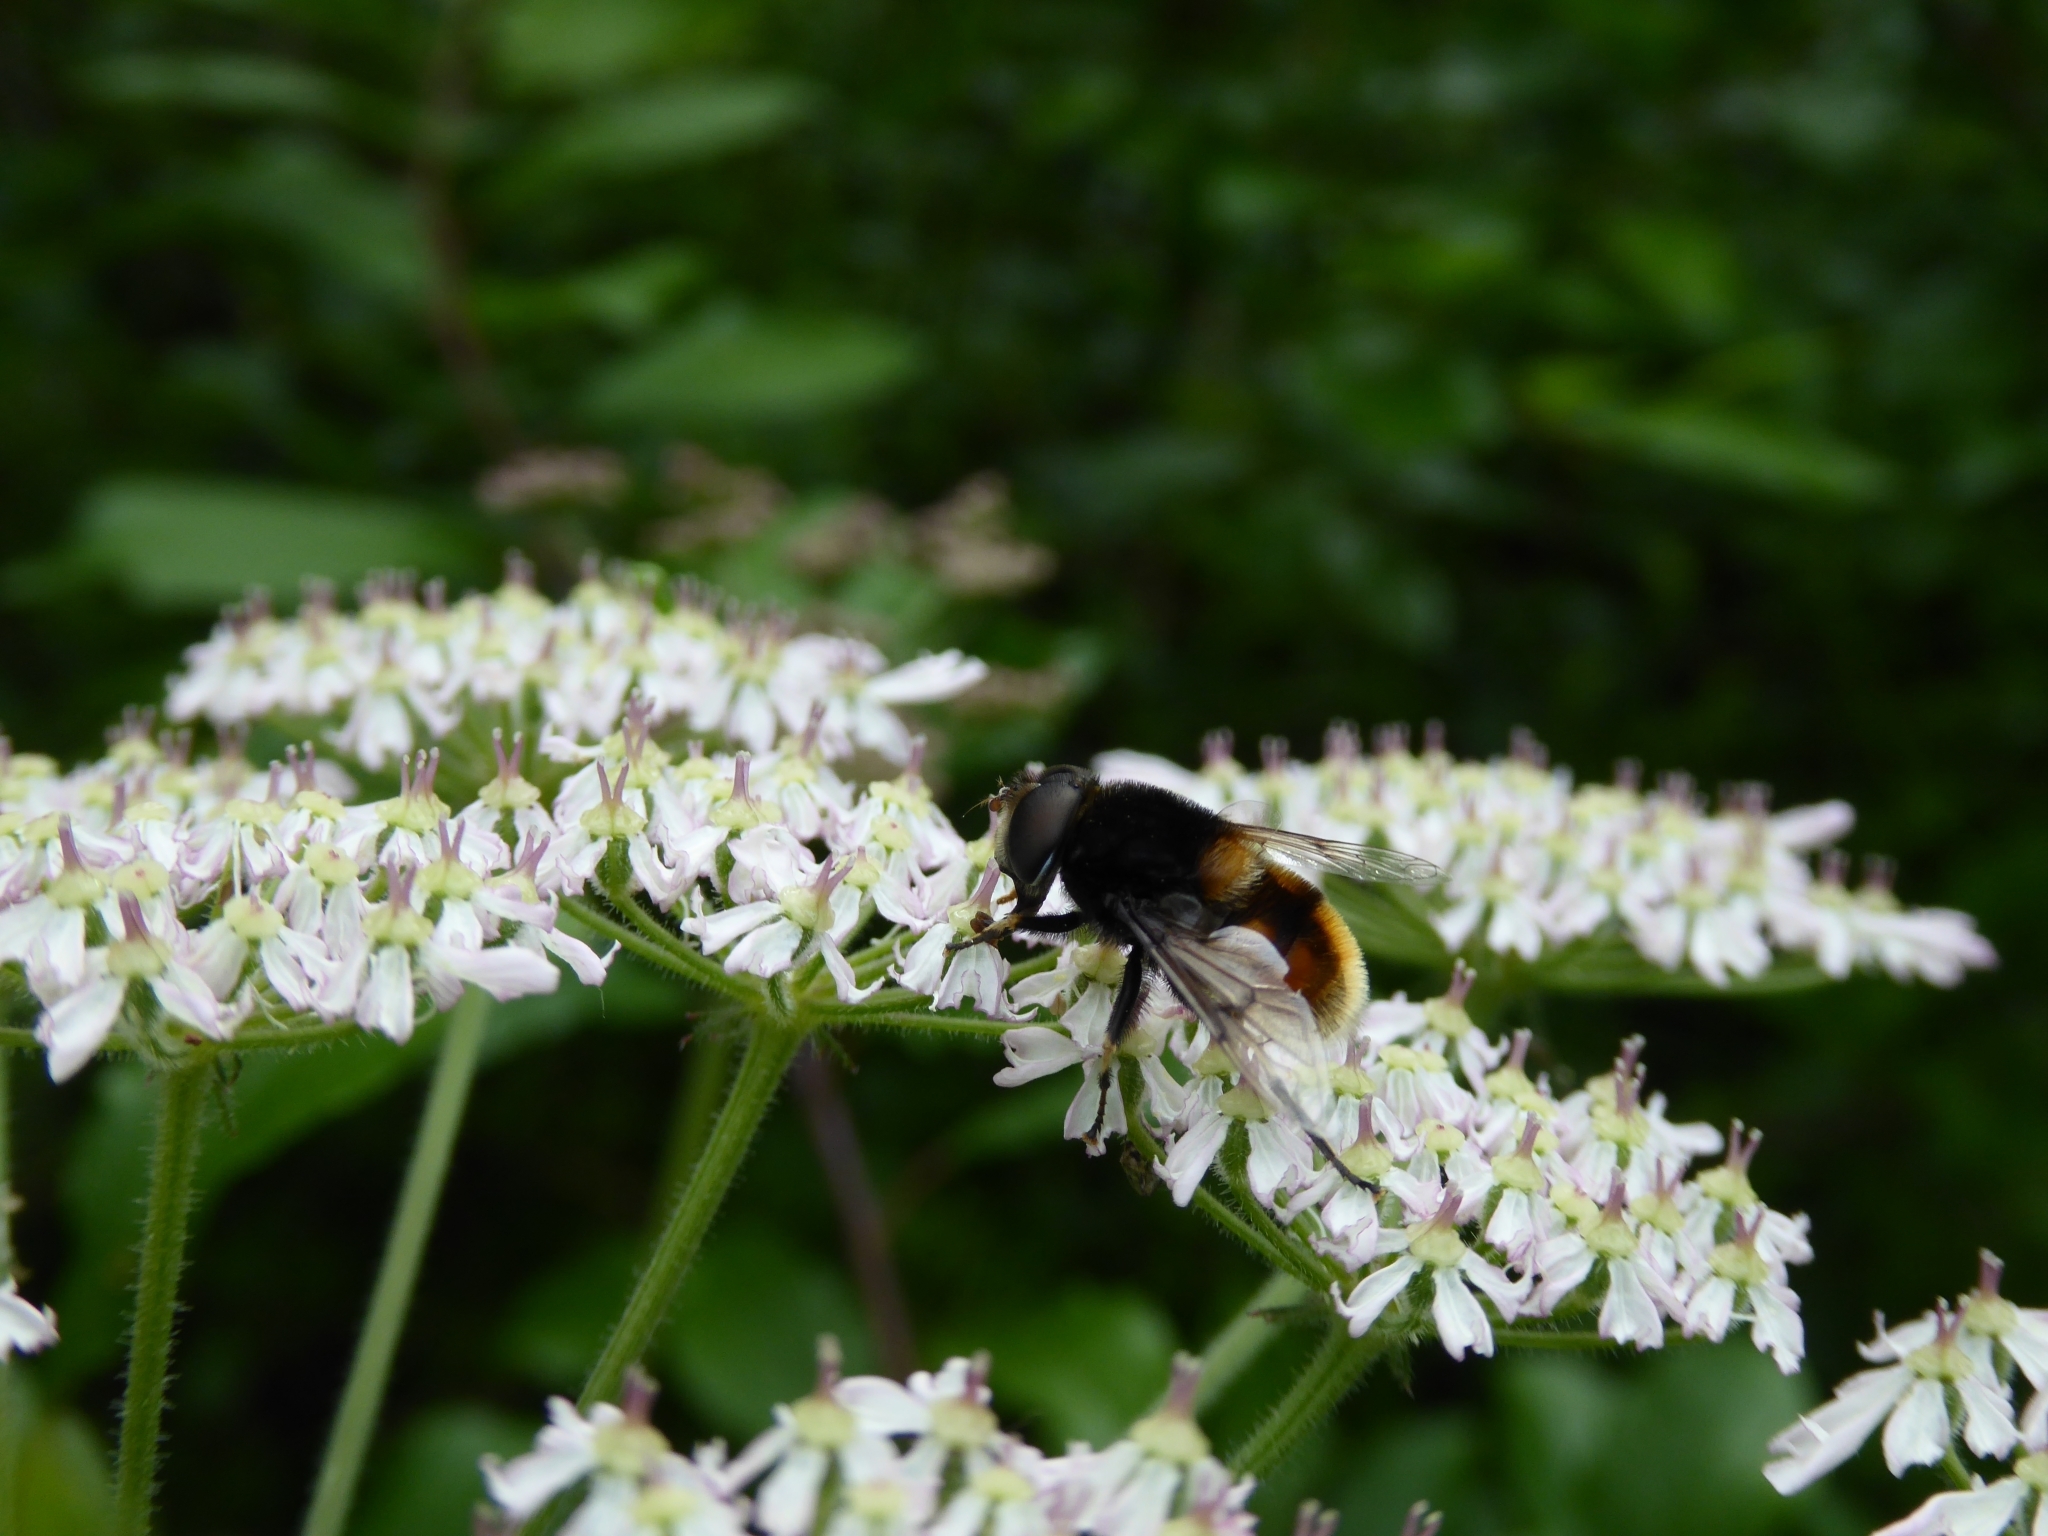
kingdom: Animalia
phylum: Arthropoda
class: Insecta
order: Diptera
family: Syrphidae
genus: Eristalis
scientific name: Eristalis intricaria
